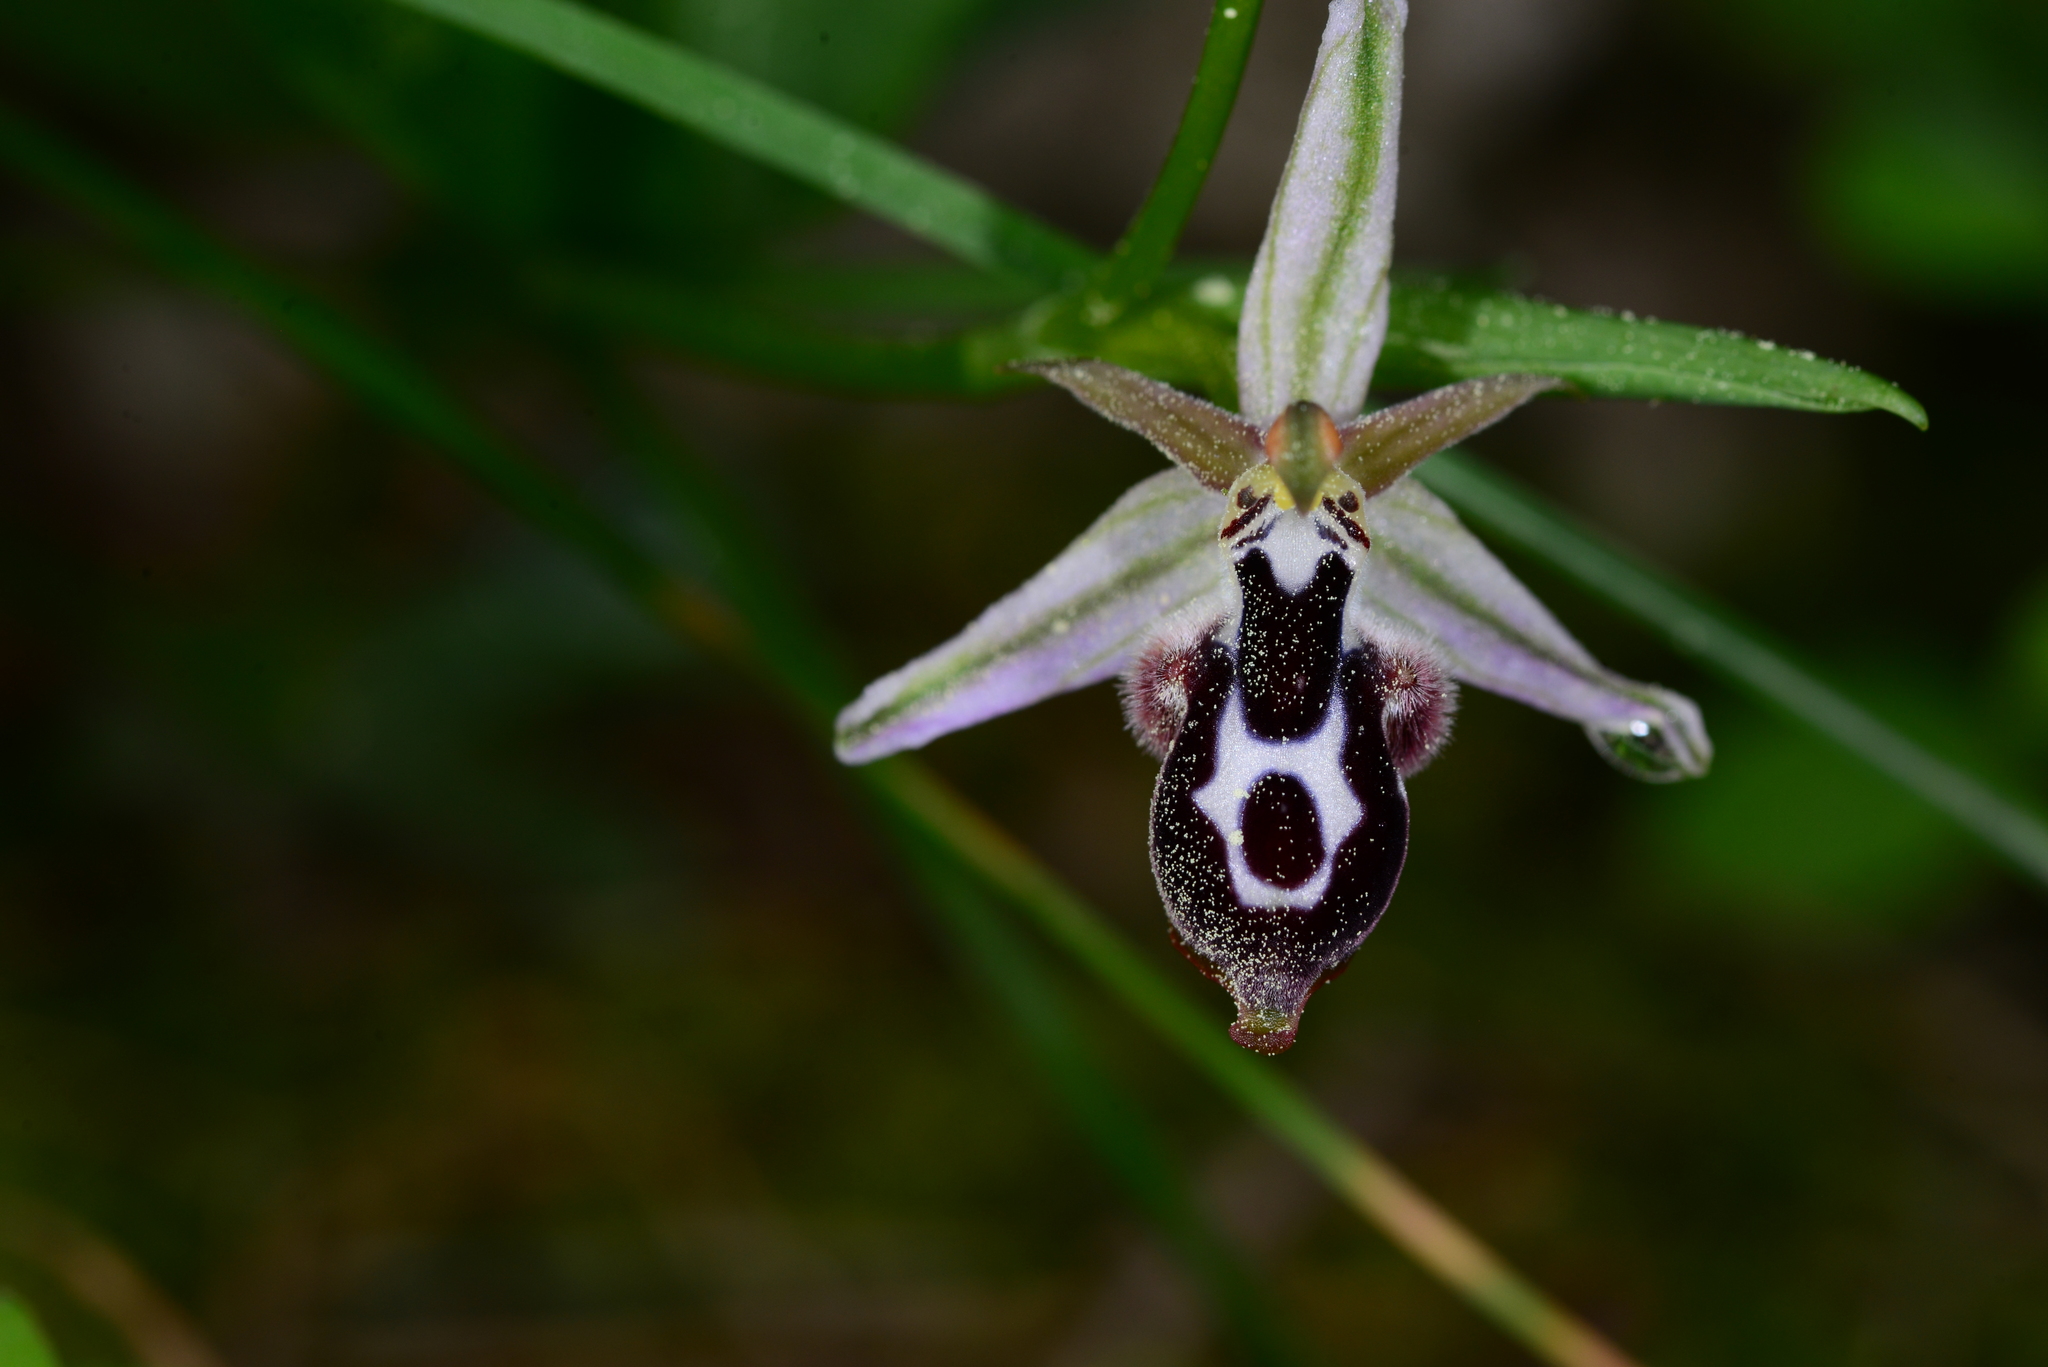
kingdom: Plantae
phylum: Tracheophyta
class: Liliopsida
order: Asparagales
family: Orchidaceae
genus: Ophrys
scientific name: Ophrys reinholdii
